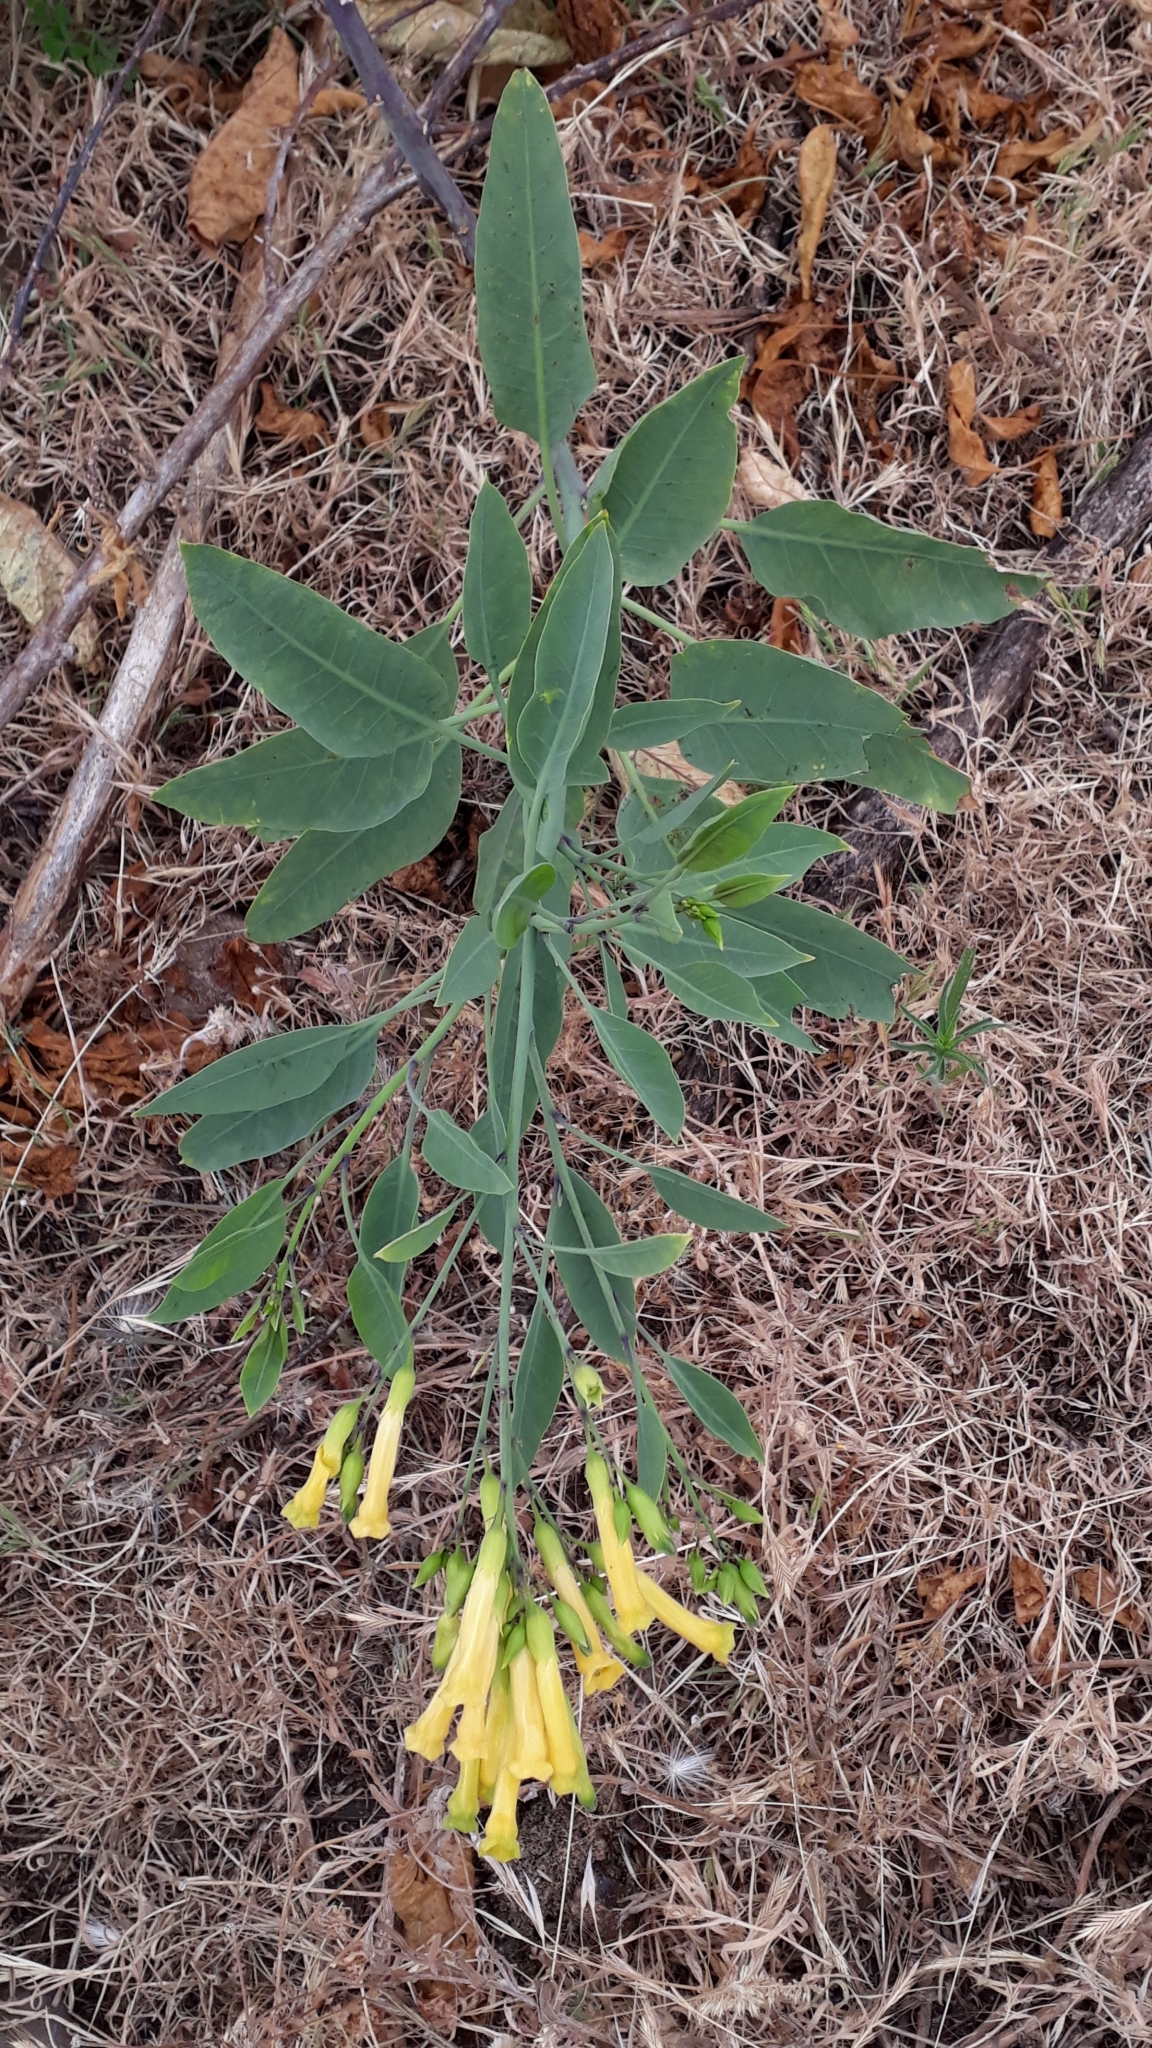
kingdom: Plantae
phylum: Tracheophyta
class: Magnoliopsida
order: Solanales
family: Solanaceae
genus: Nicotiana
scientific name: Nicotiana glauca
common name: Tree tobacco
